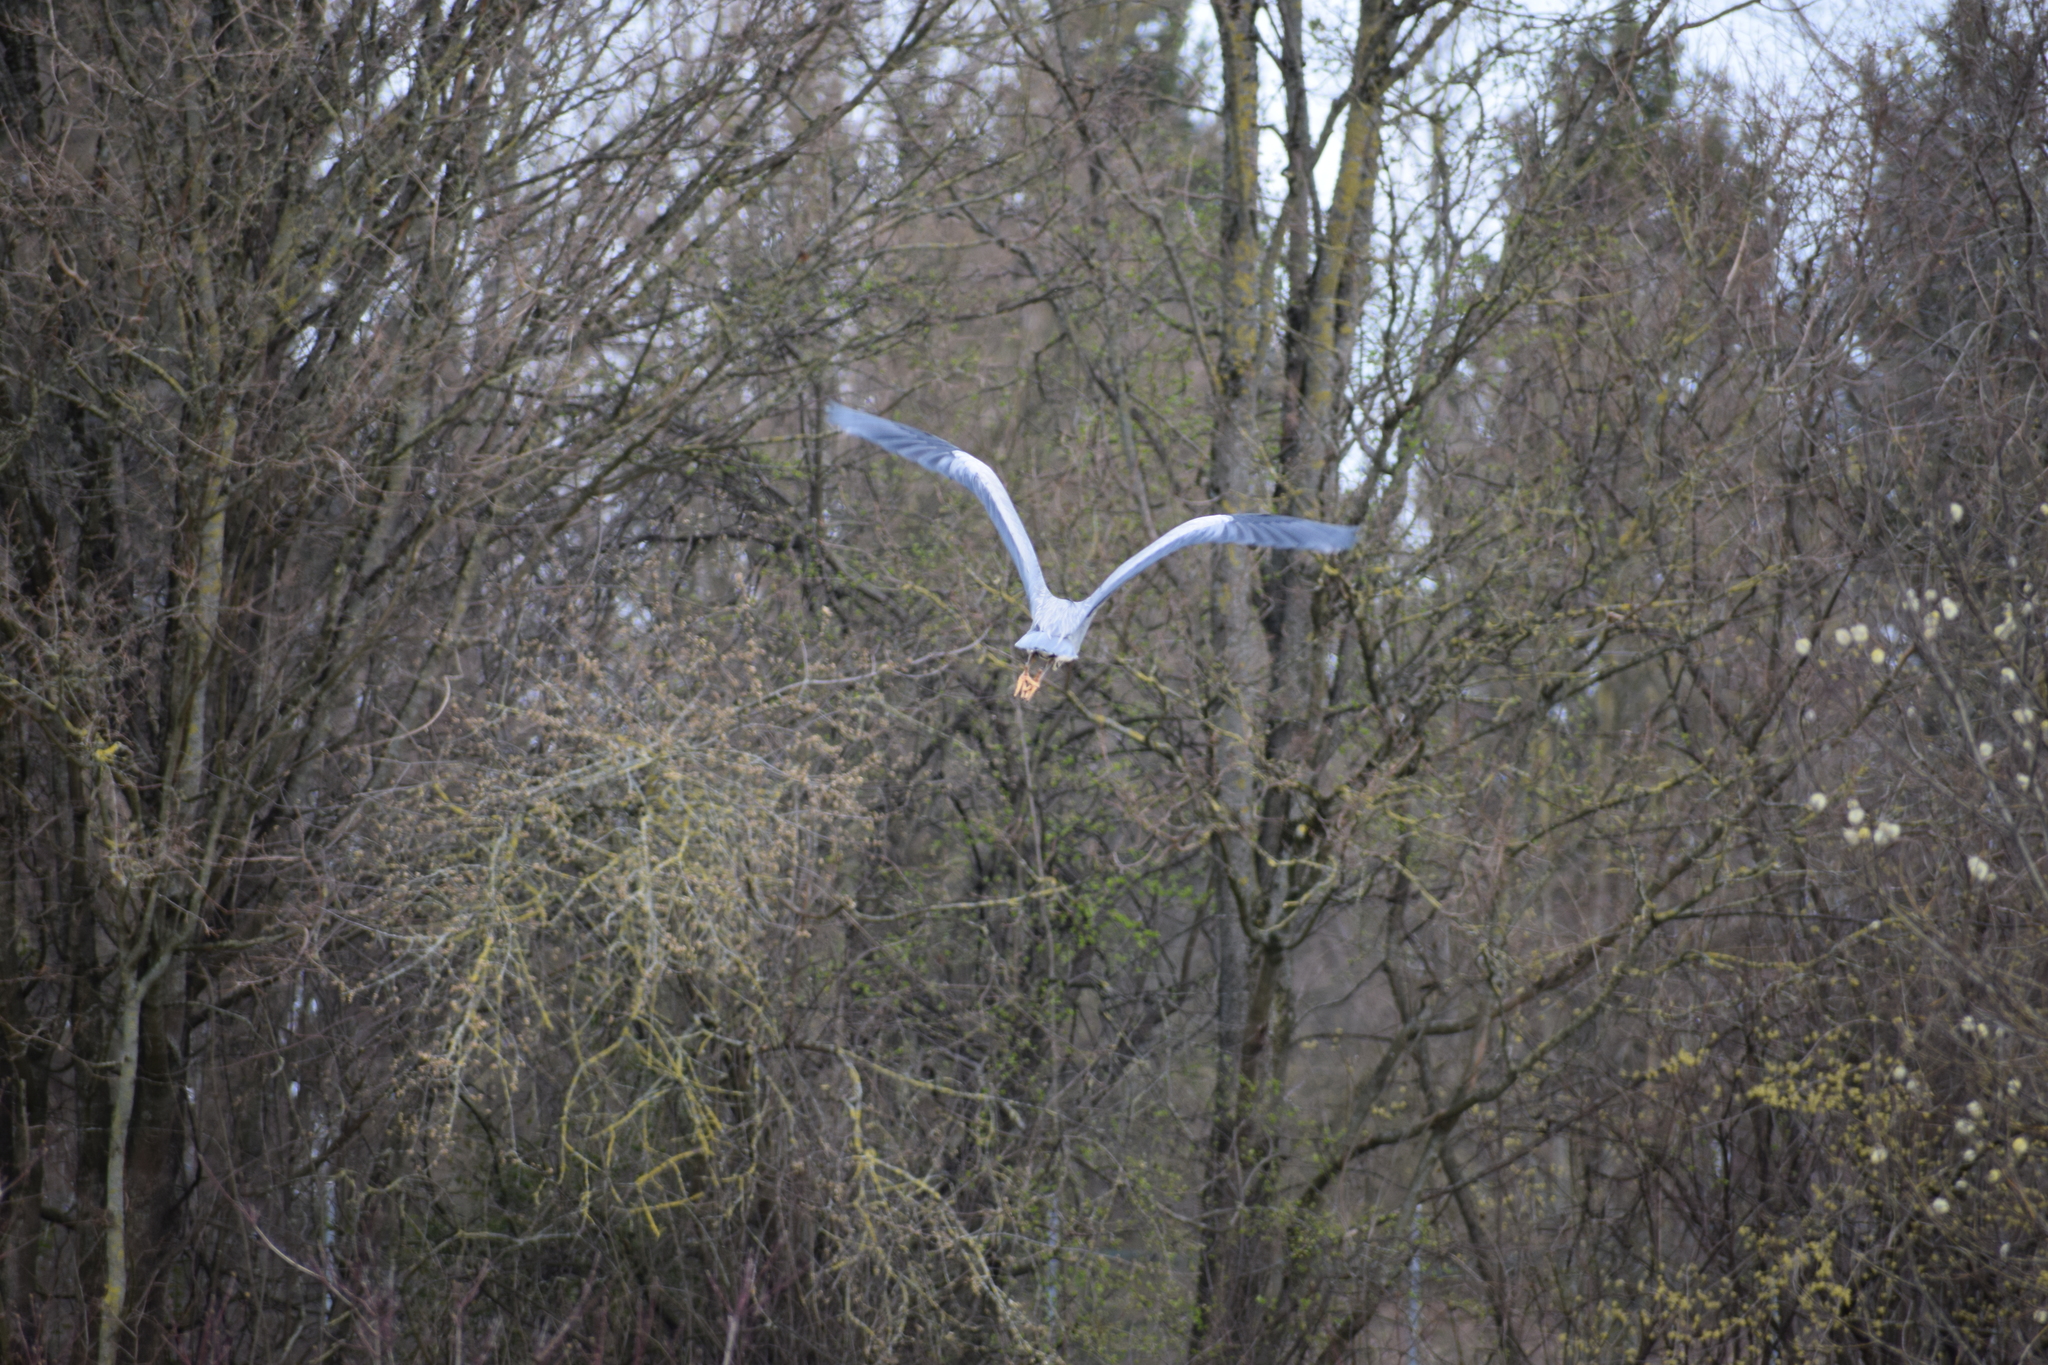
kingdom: Animalia
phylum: Chordata
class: Aves
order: Pelecaniformes
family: Ardeidae
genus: Ardea
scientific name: Ardea cinerea
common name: Grey heron
